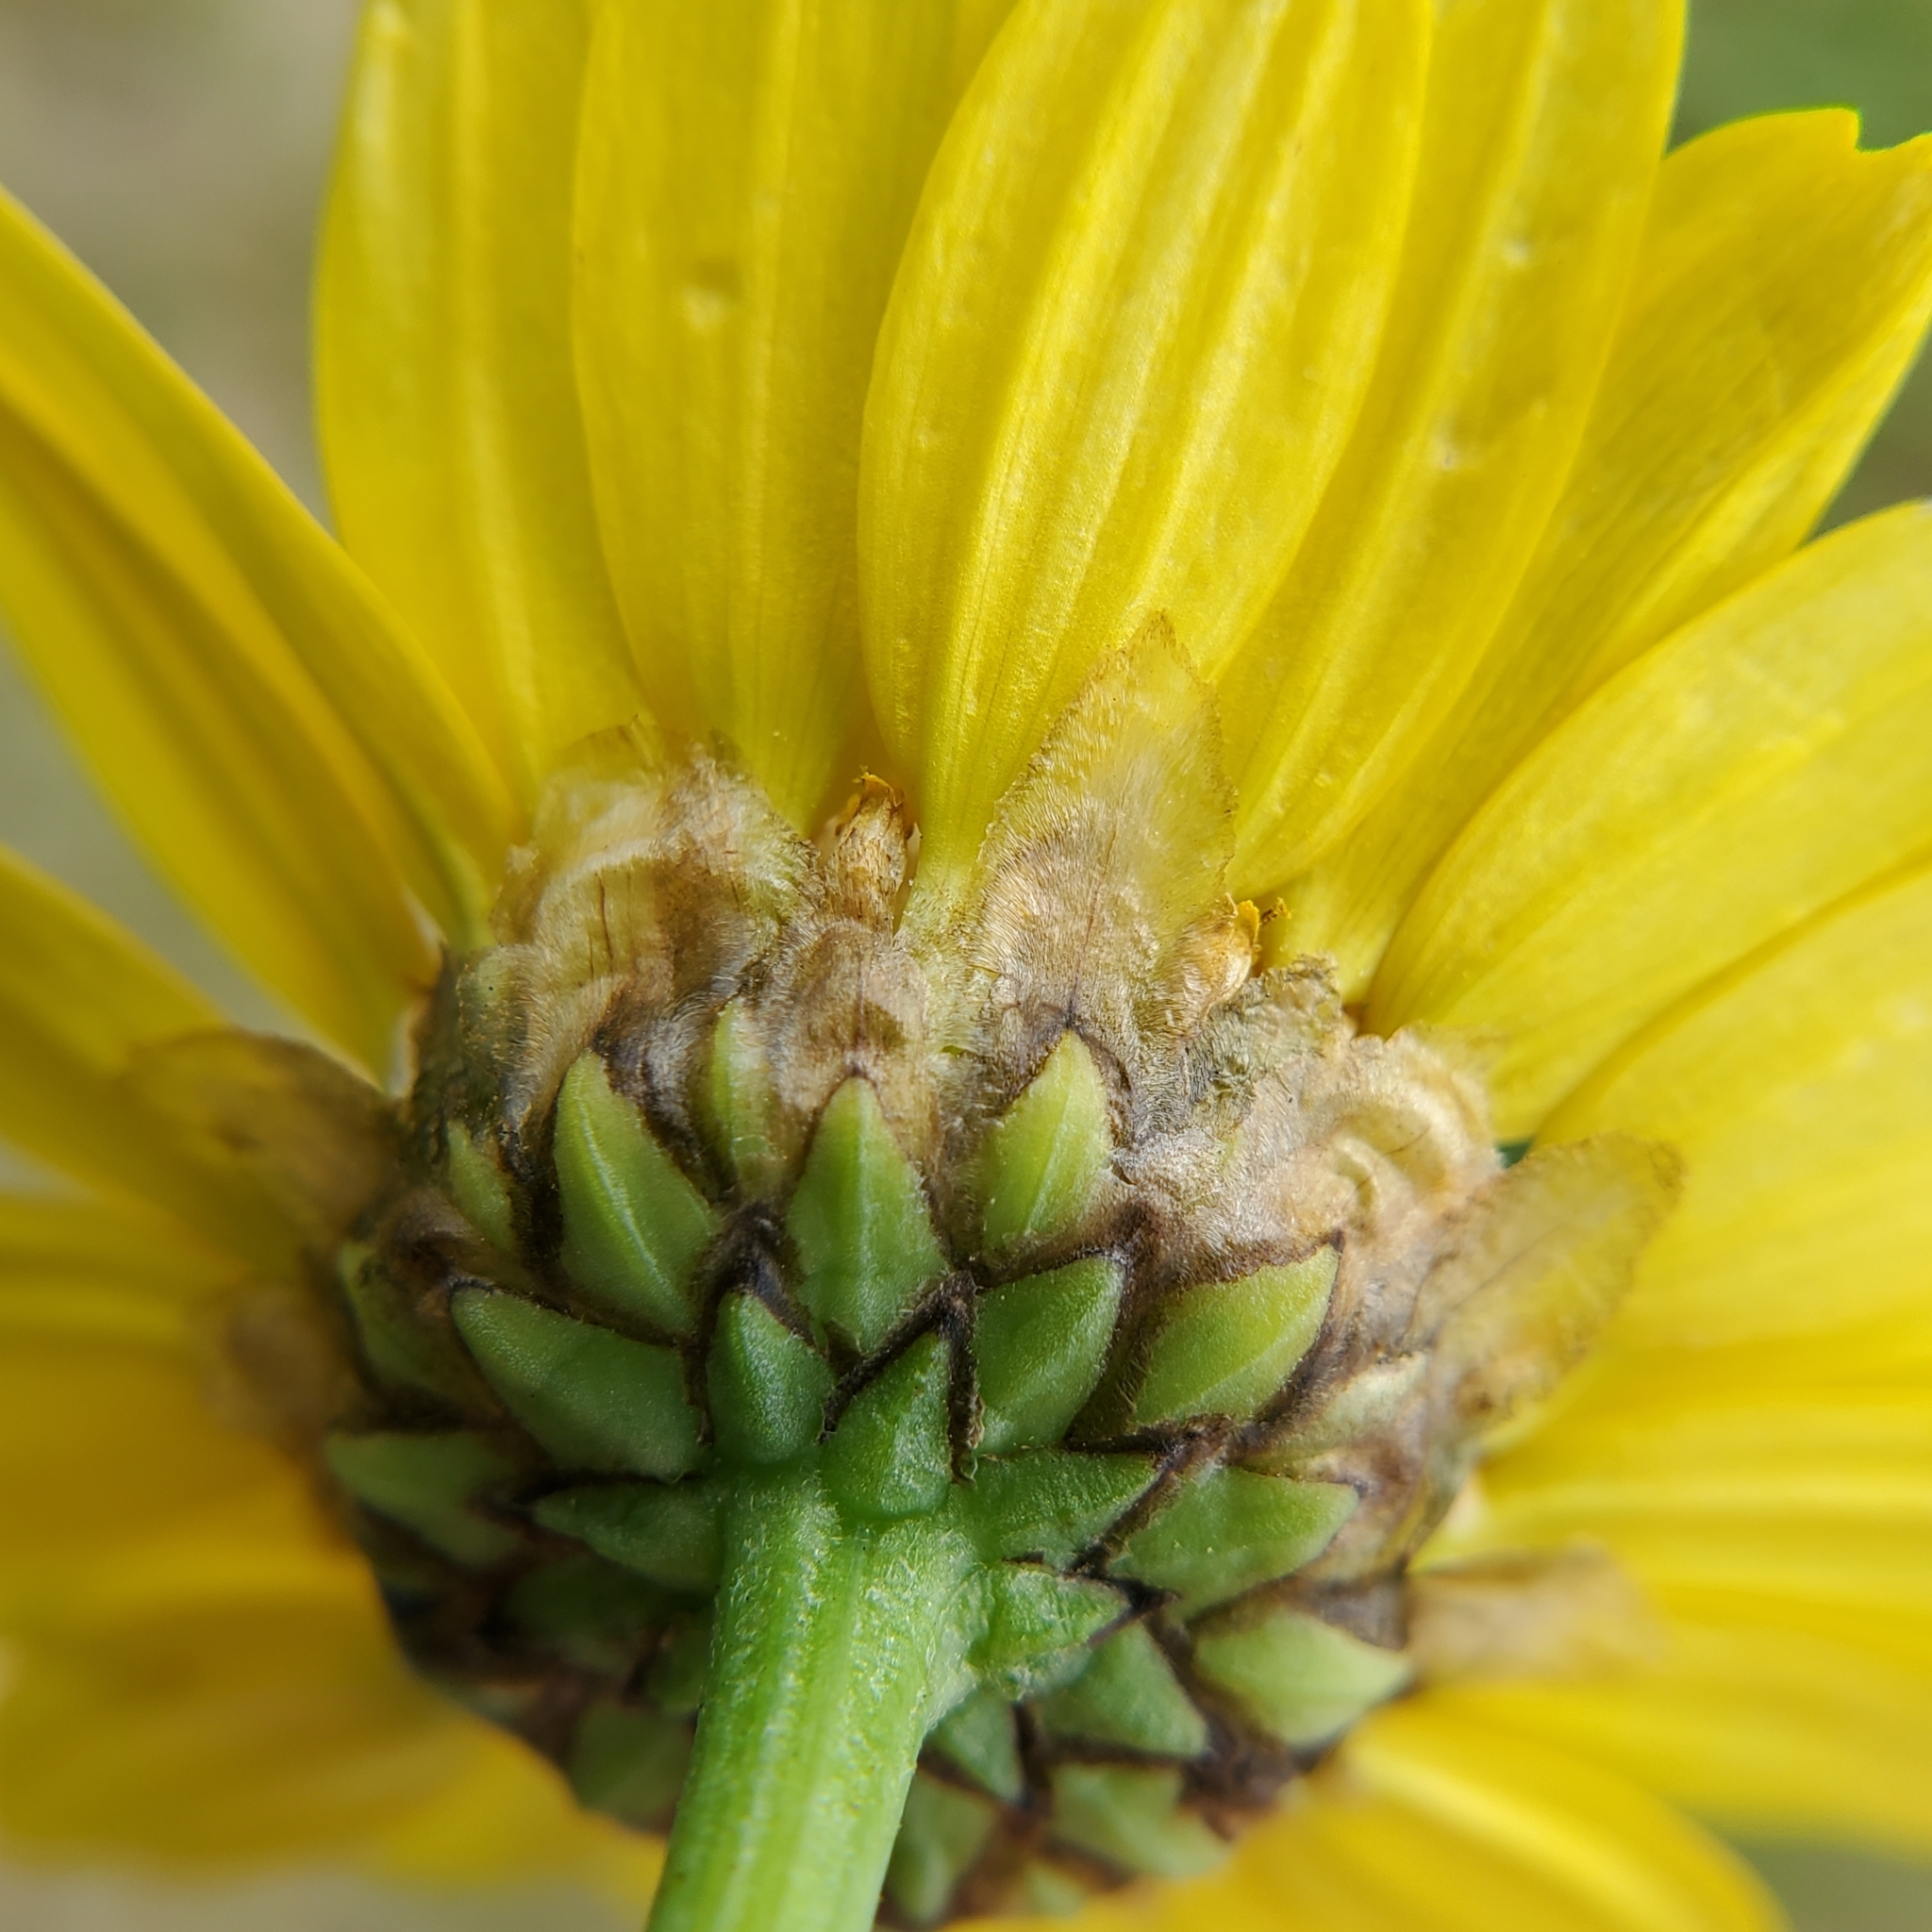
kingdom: Plantae
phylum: Tracheophyta
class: Magnoliopsida
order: Asterales
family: Asteraceae
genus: Glebionis
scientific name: Glebionis coronaria
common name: Crowndaisy
